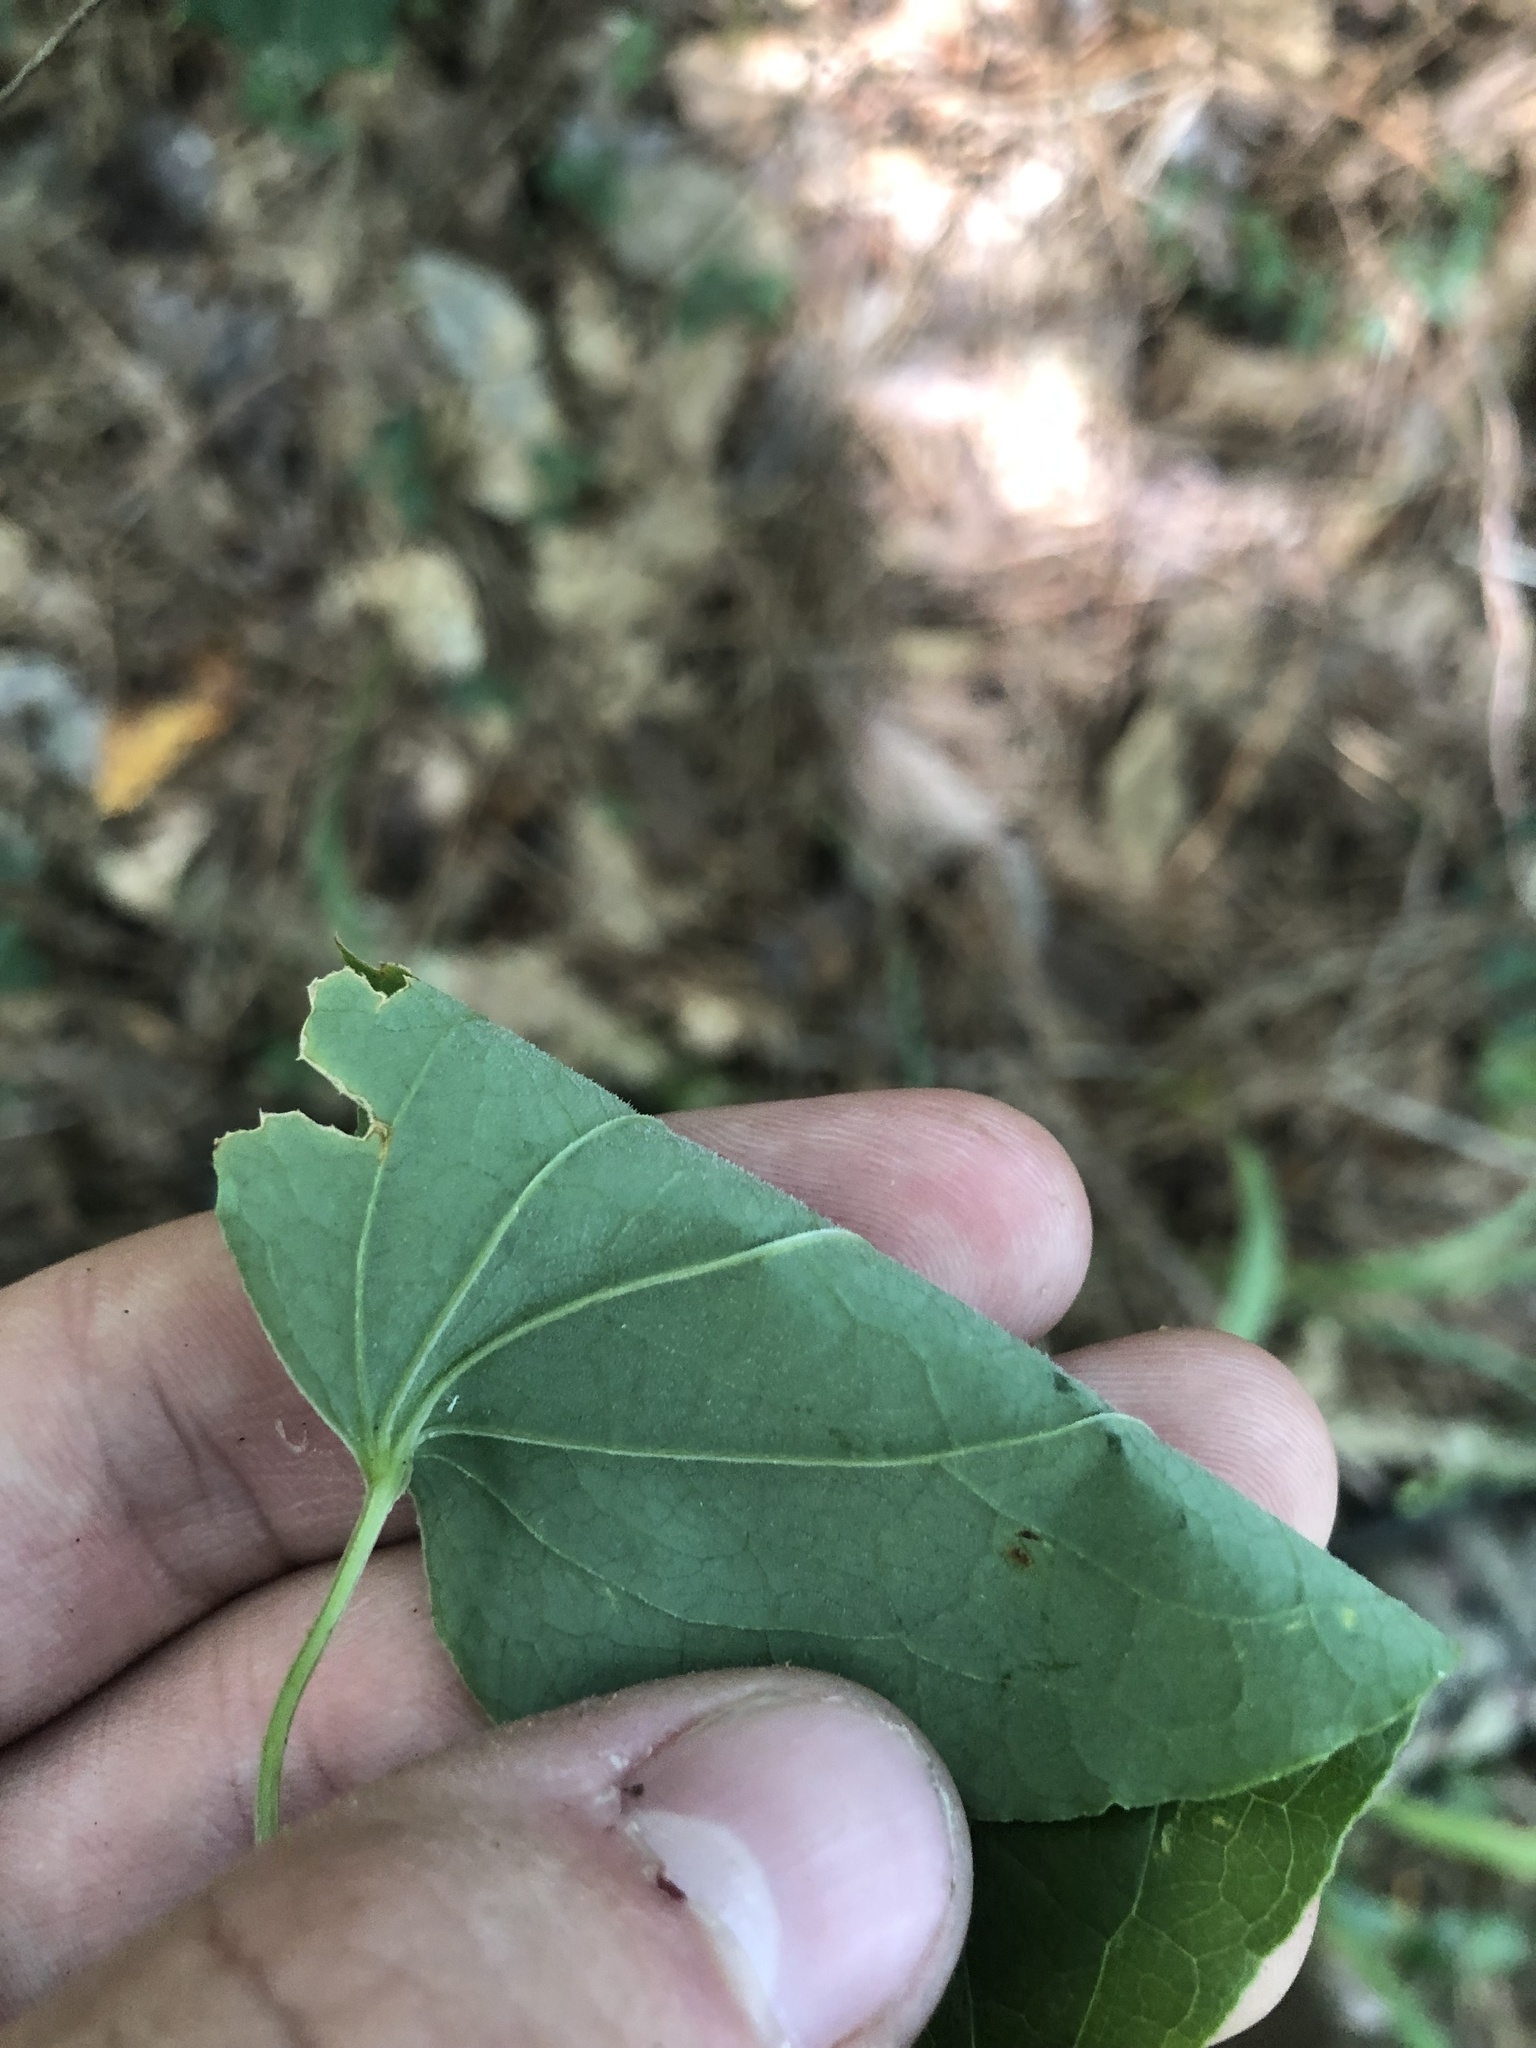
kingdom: Plantae
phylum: Tracheophyta
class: Liliopsida
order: Liliales
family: Smilacaceae
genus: Smilax
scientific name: Smilax lasioneura
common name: Blue ridge carrionflower
